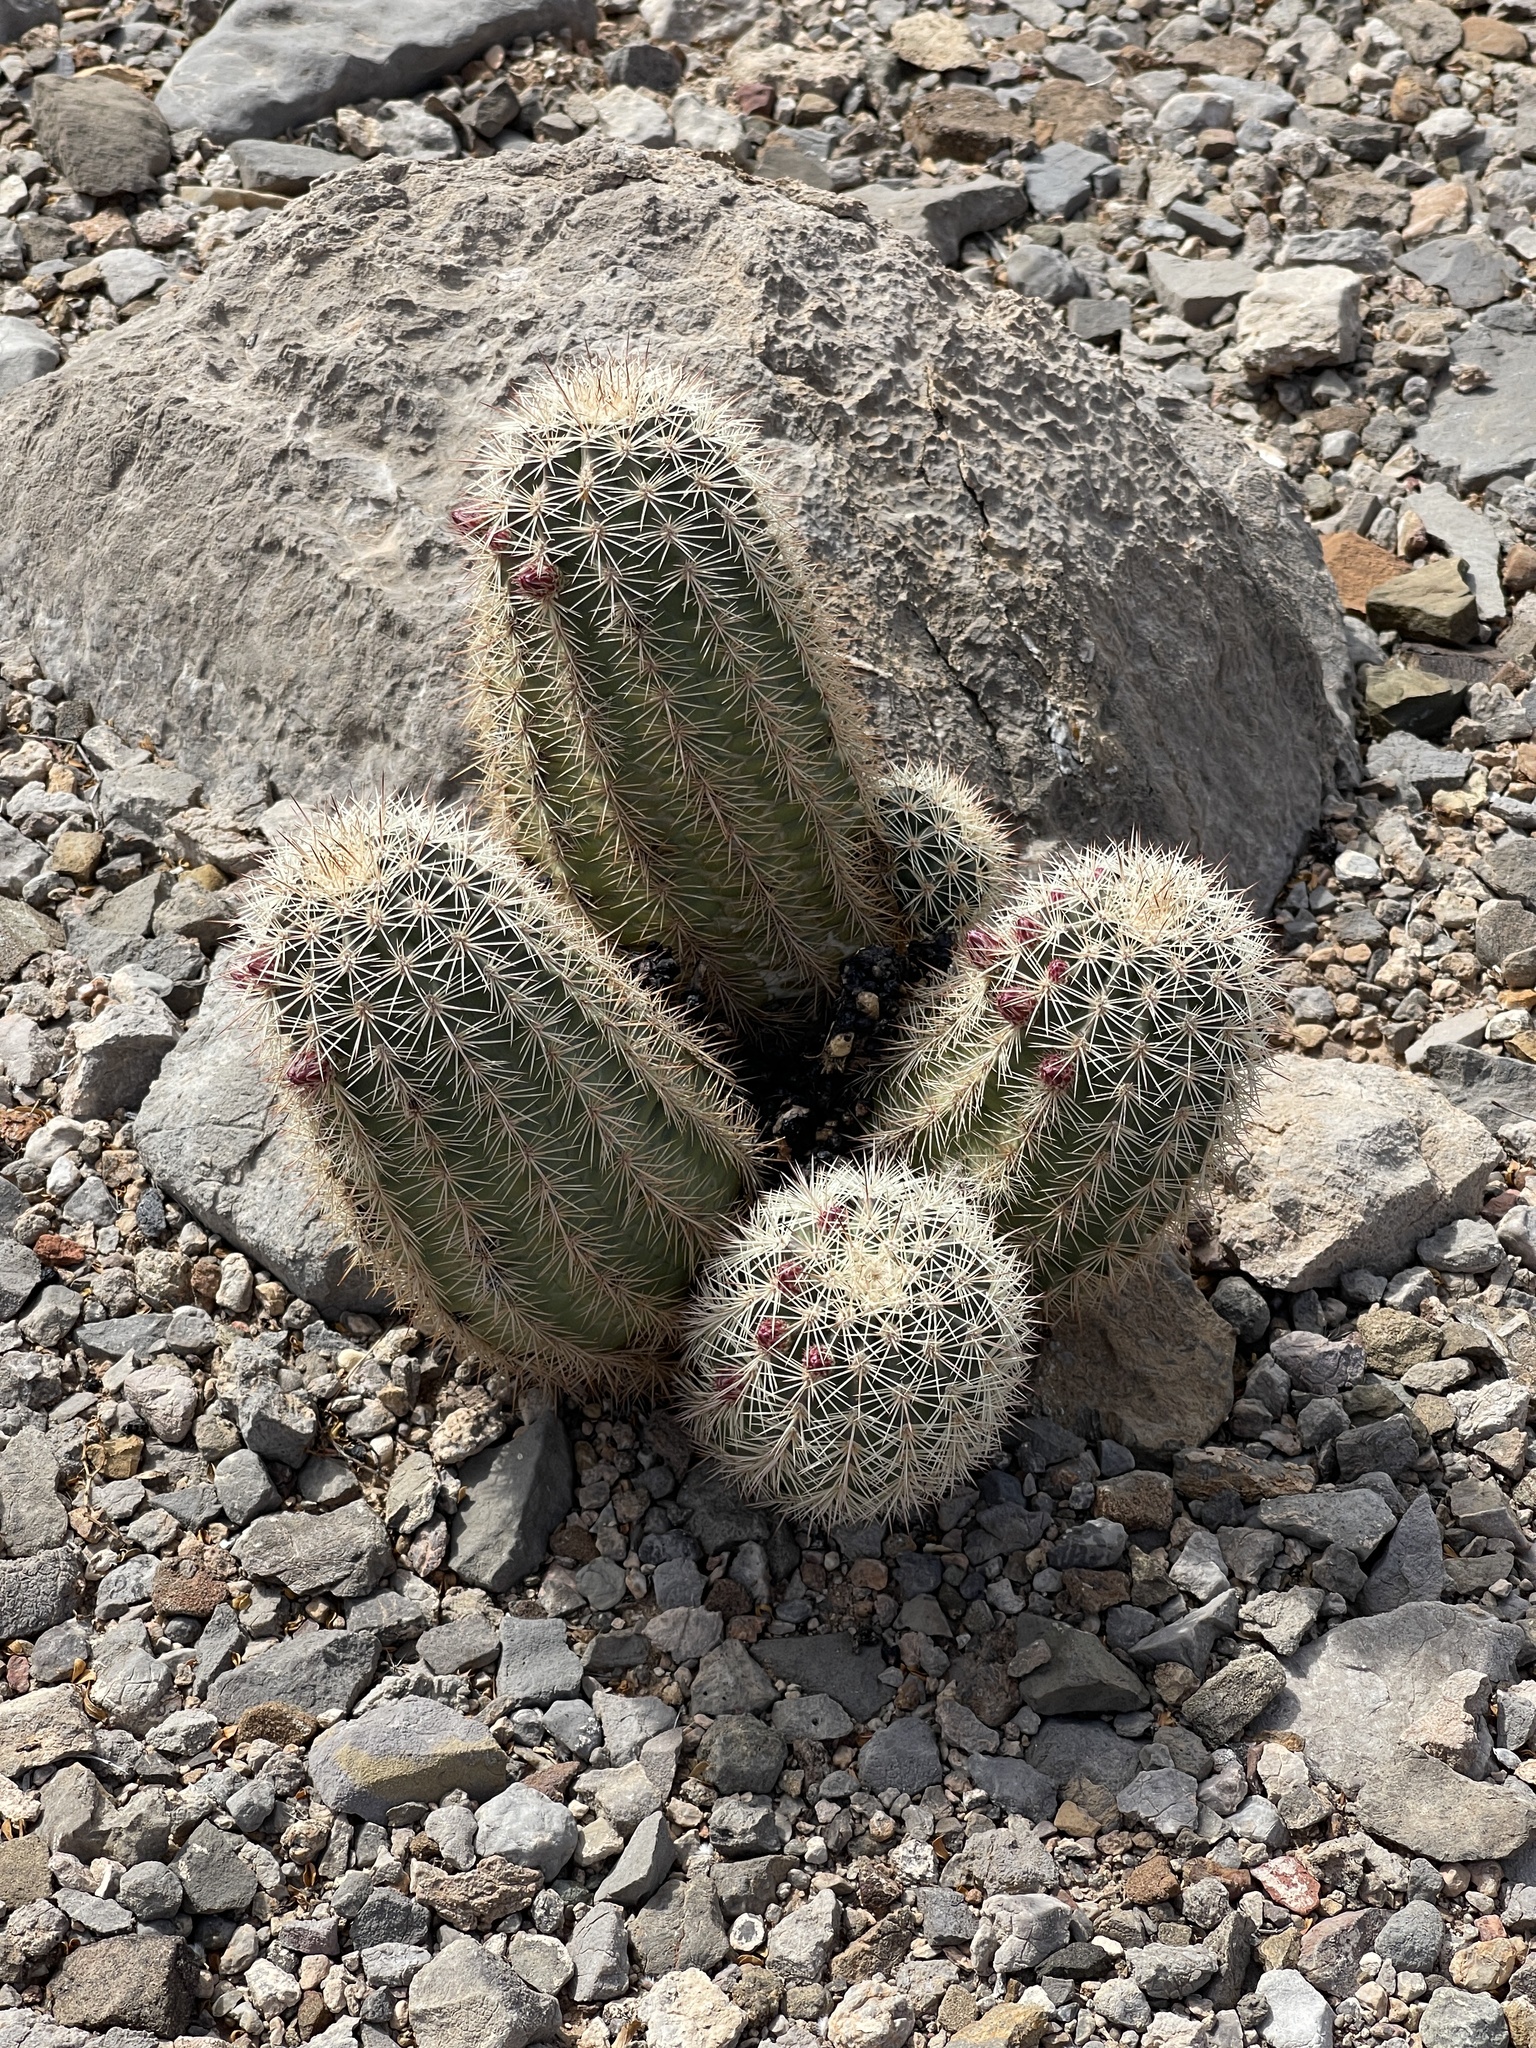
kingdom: Plantae
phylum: Tracheophyta
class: Magnoliopsida
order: Caryophyllales
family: Cactaceae
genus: Echinocereus
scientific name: Echinocereus dasyacanthus
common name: Spiny hedgehog cactus
